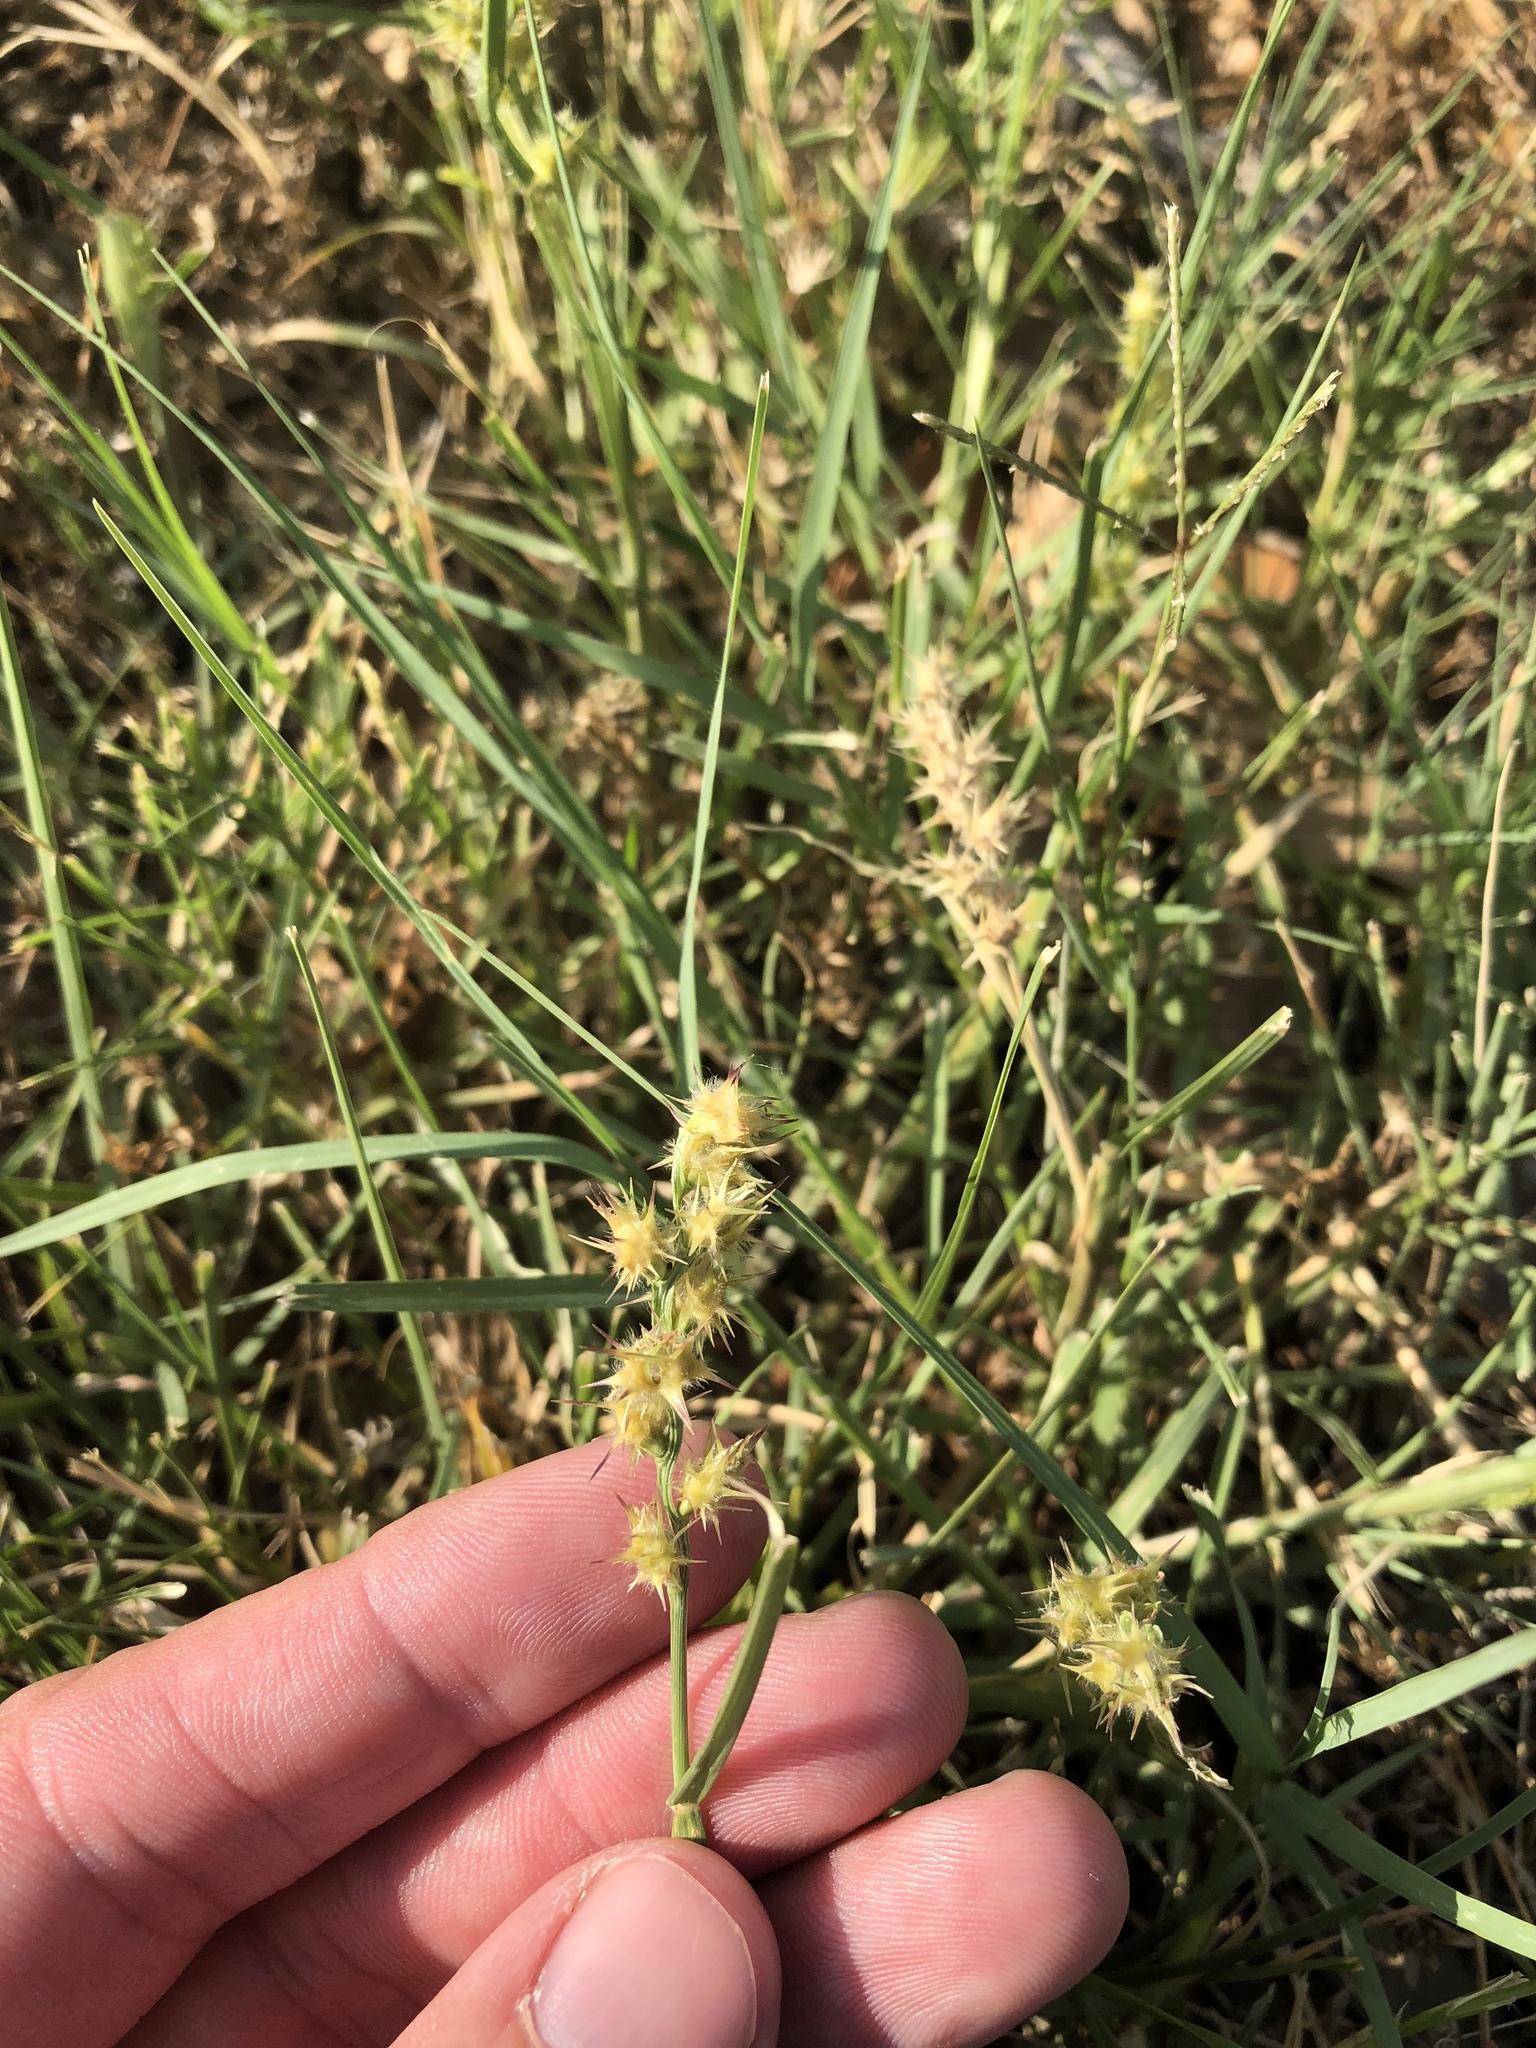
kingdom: Plantae
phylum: Tracheophyta
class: Liliopsida
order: Poales
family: Poaceae
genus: Cenchrus
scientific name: Cenchrus spinifex
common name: Coast sandbur
